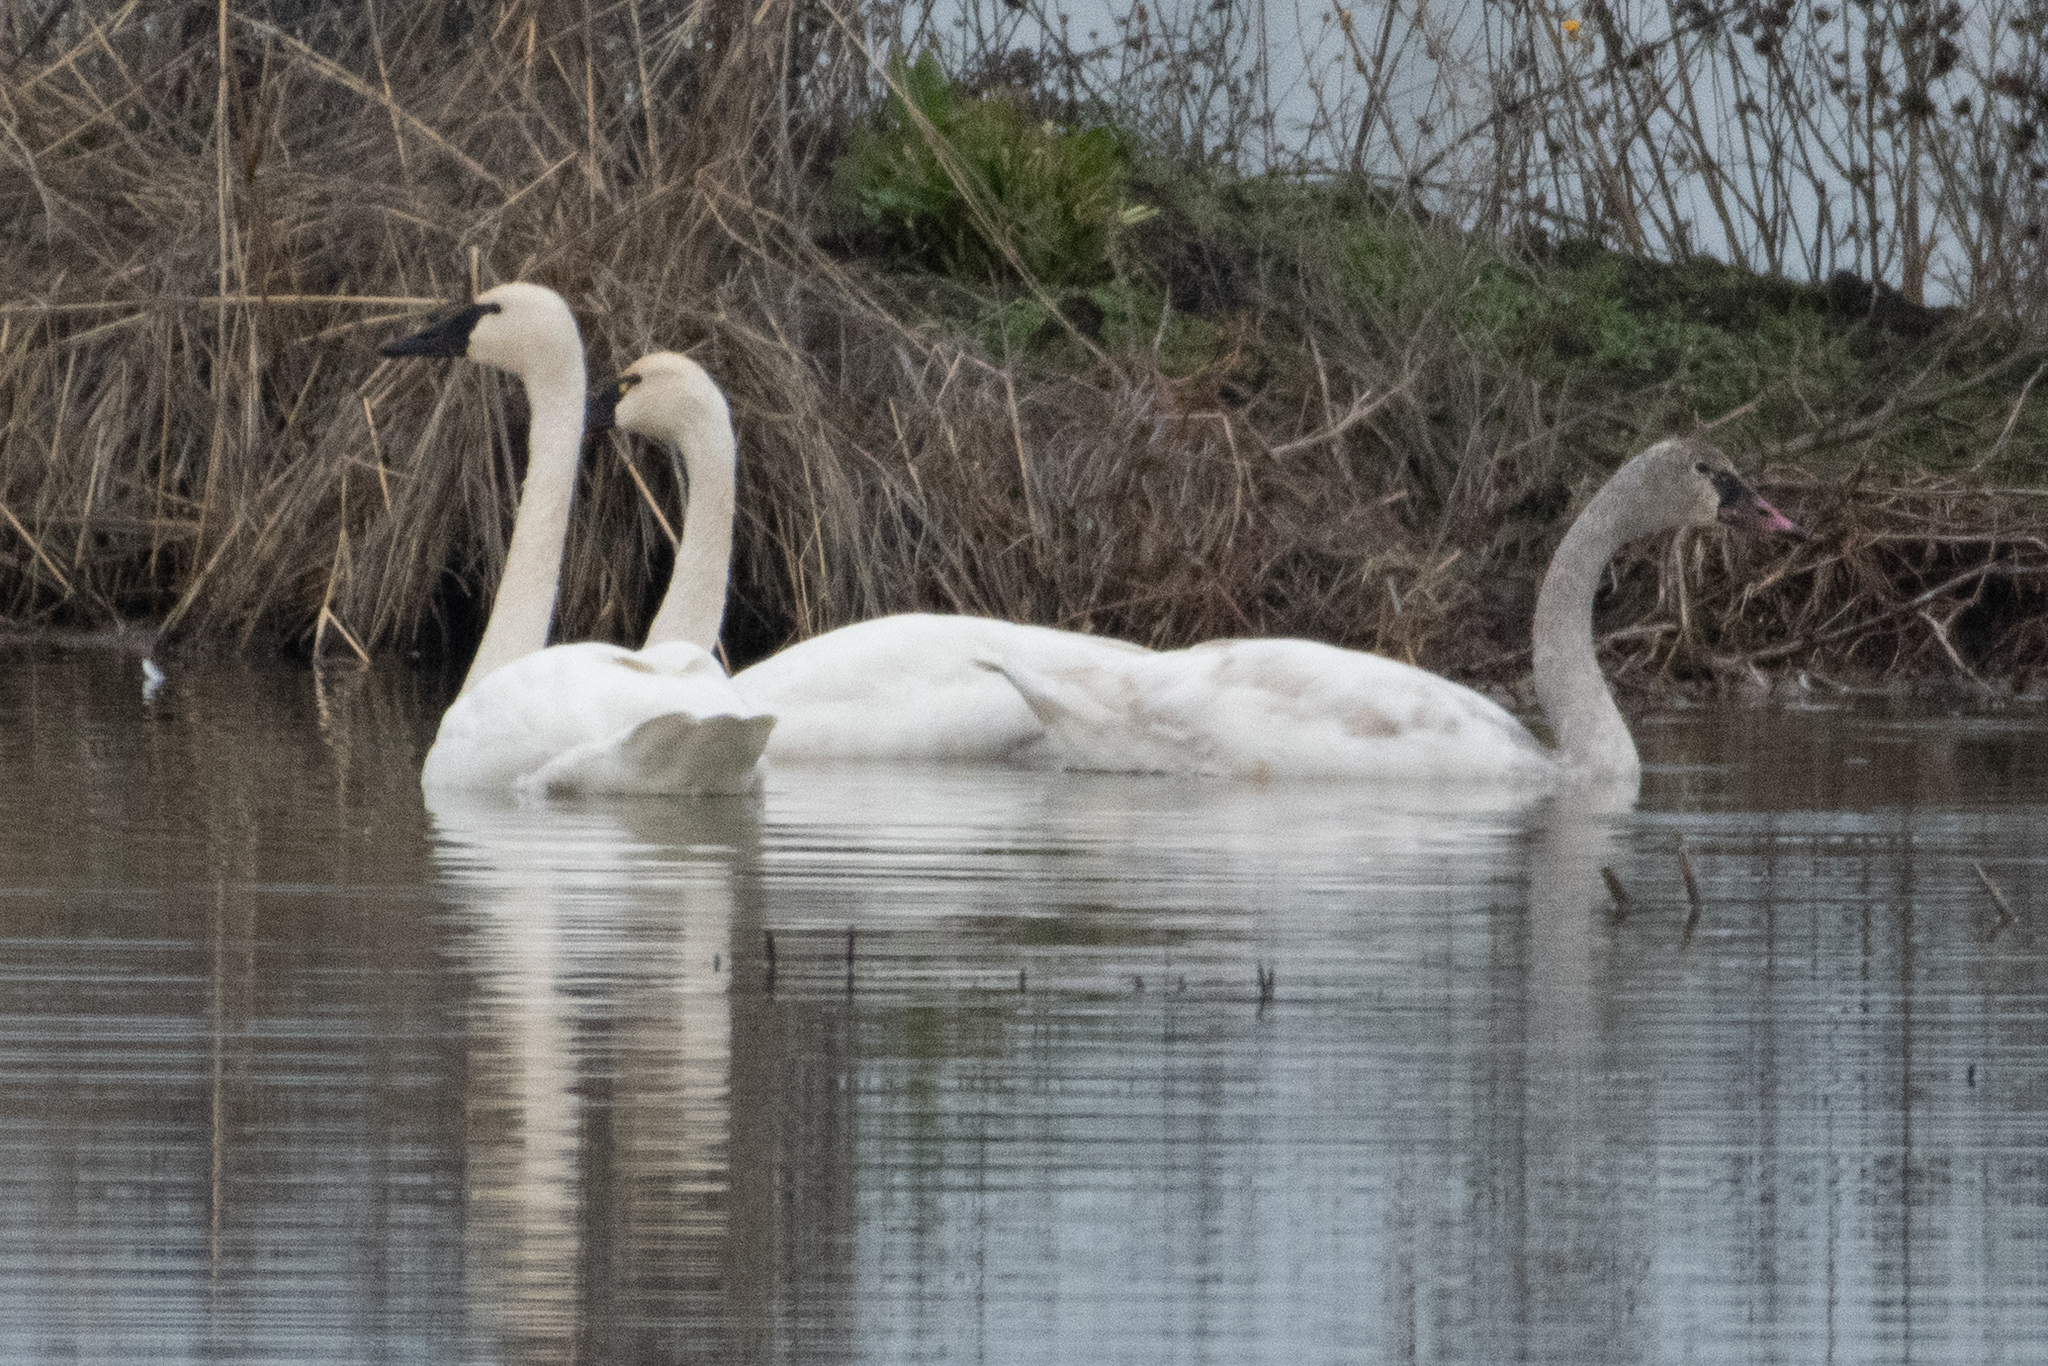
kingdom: Animalia
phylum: Chordata
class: Aves
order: Anseriformes
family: Anatidae
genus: Cygnus
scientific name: Cygnus columbianus
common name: Tundra swan
